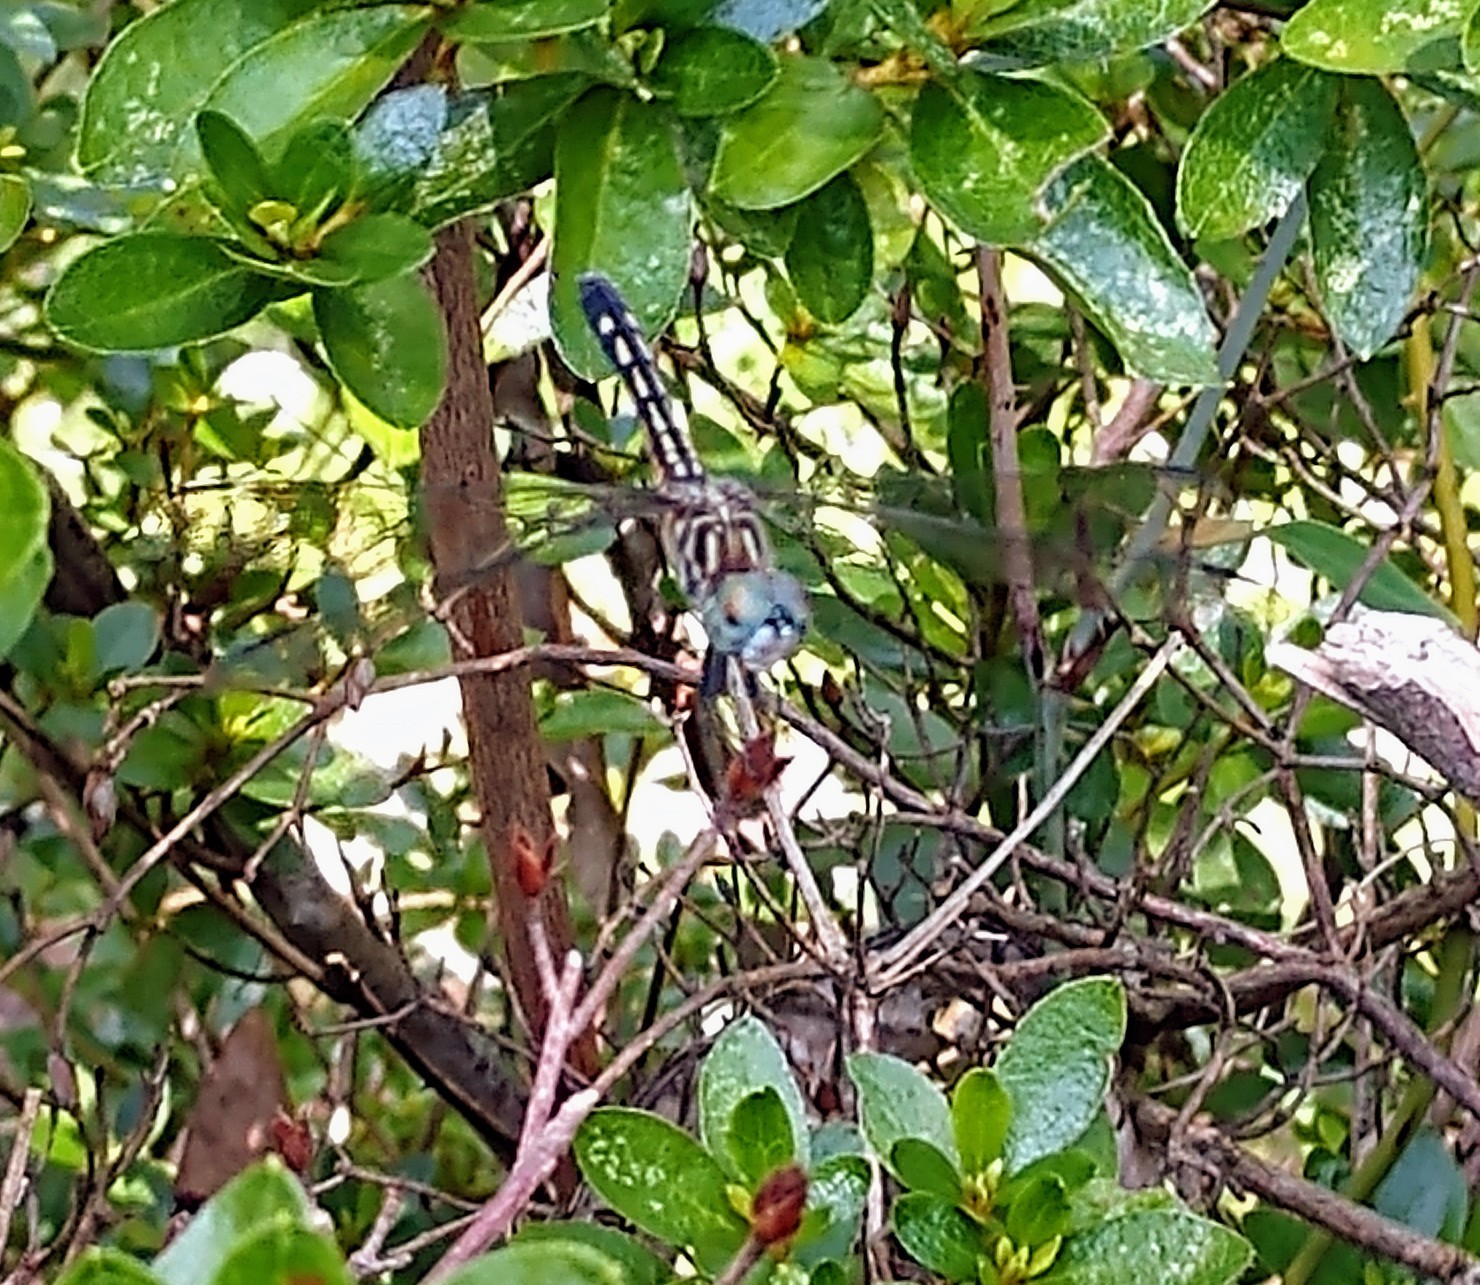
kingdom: Animalia
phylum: Arthropoda
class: Insecta
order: Odonata
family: Libellulidae
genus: Pachydiplax
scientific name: Pachydiplax longipennis
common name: Blue dasher
